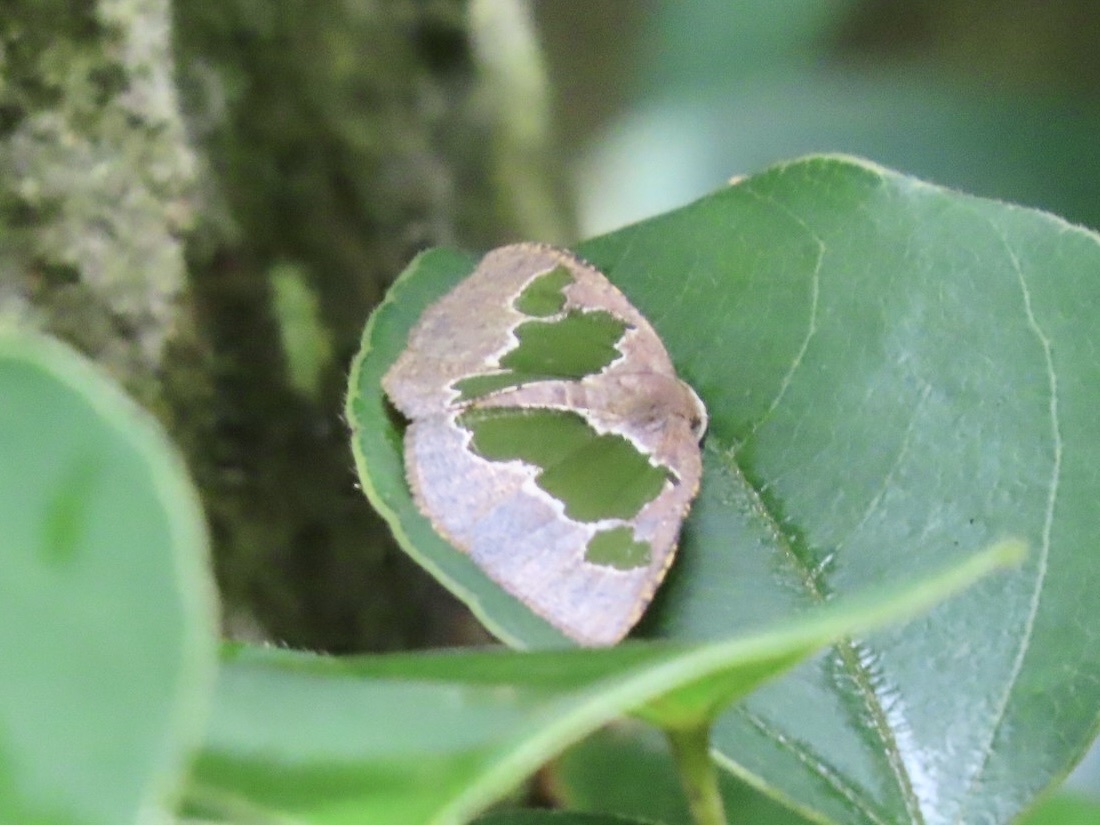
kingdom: Animalia
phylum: Arthropoda
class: Insecta
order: Lepidoptera
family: Geometridae
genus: Celenna
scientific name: Celenna festivaria
